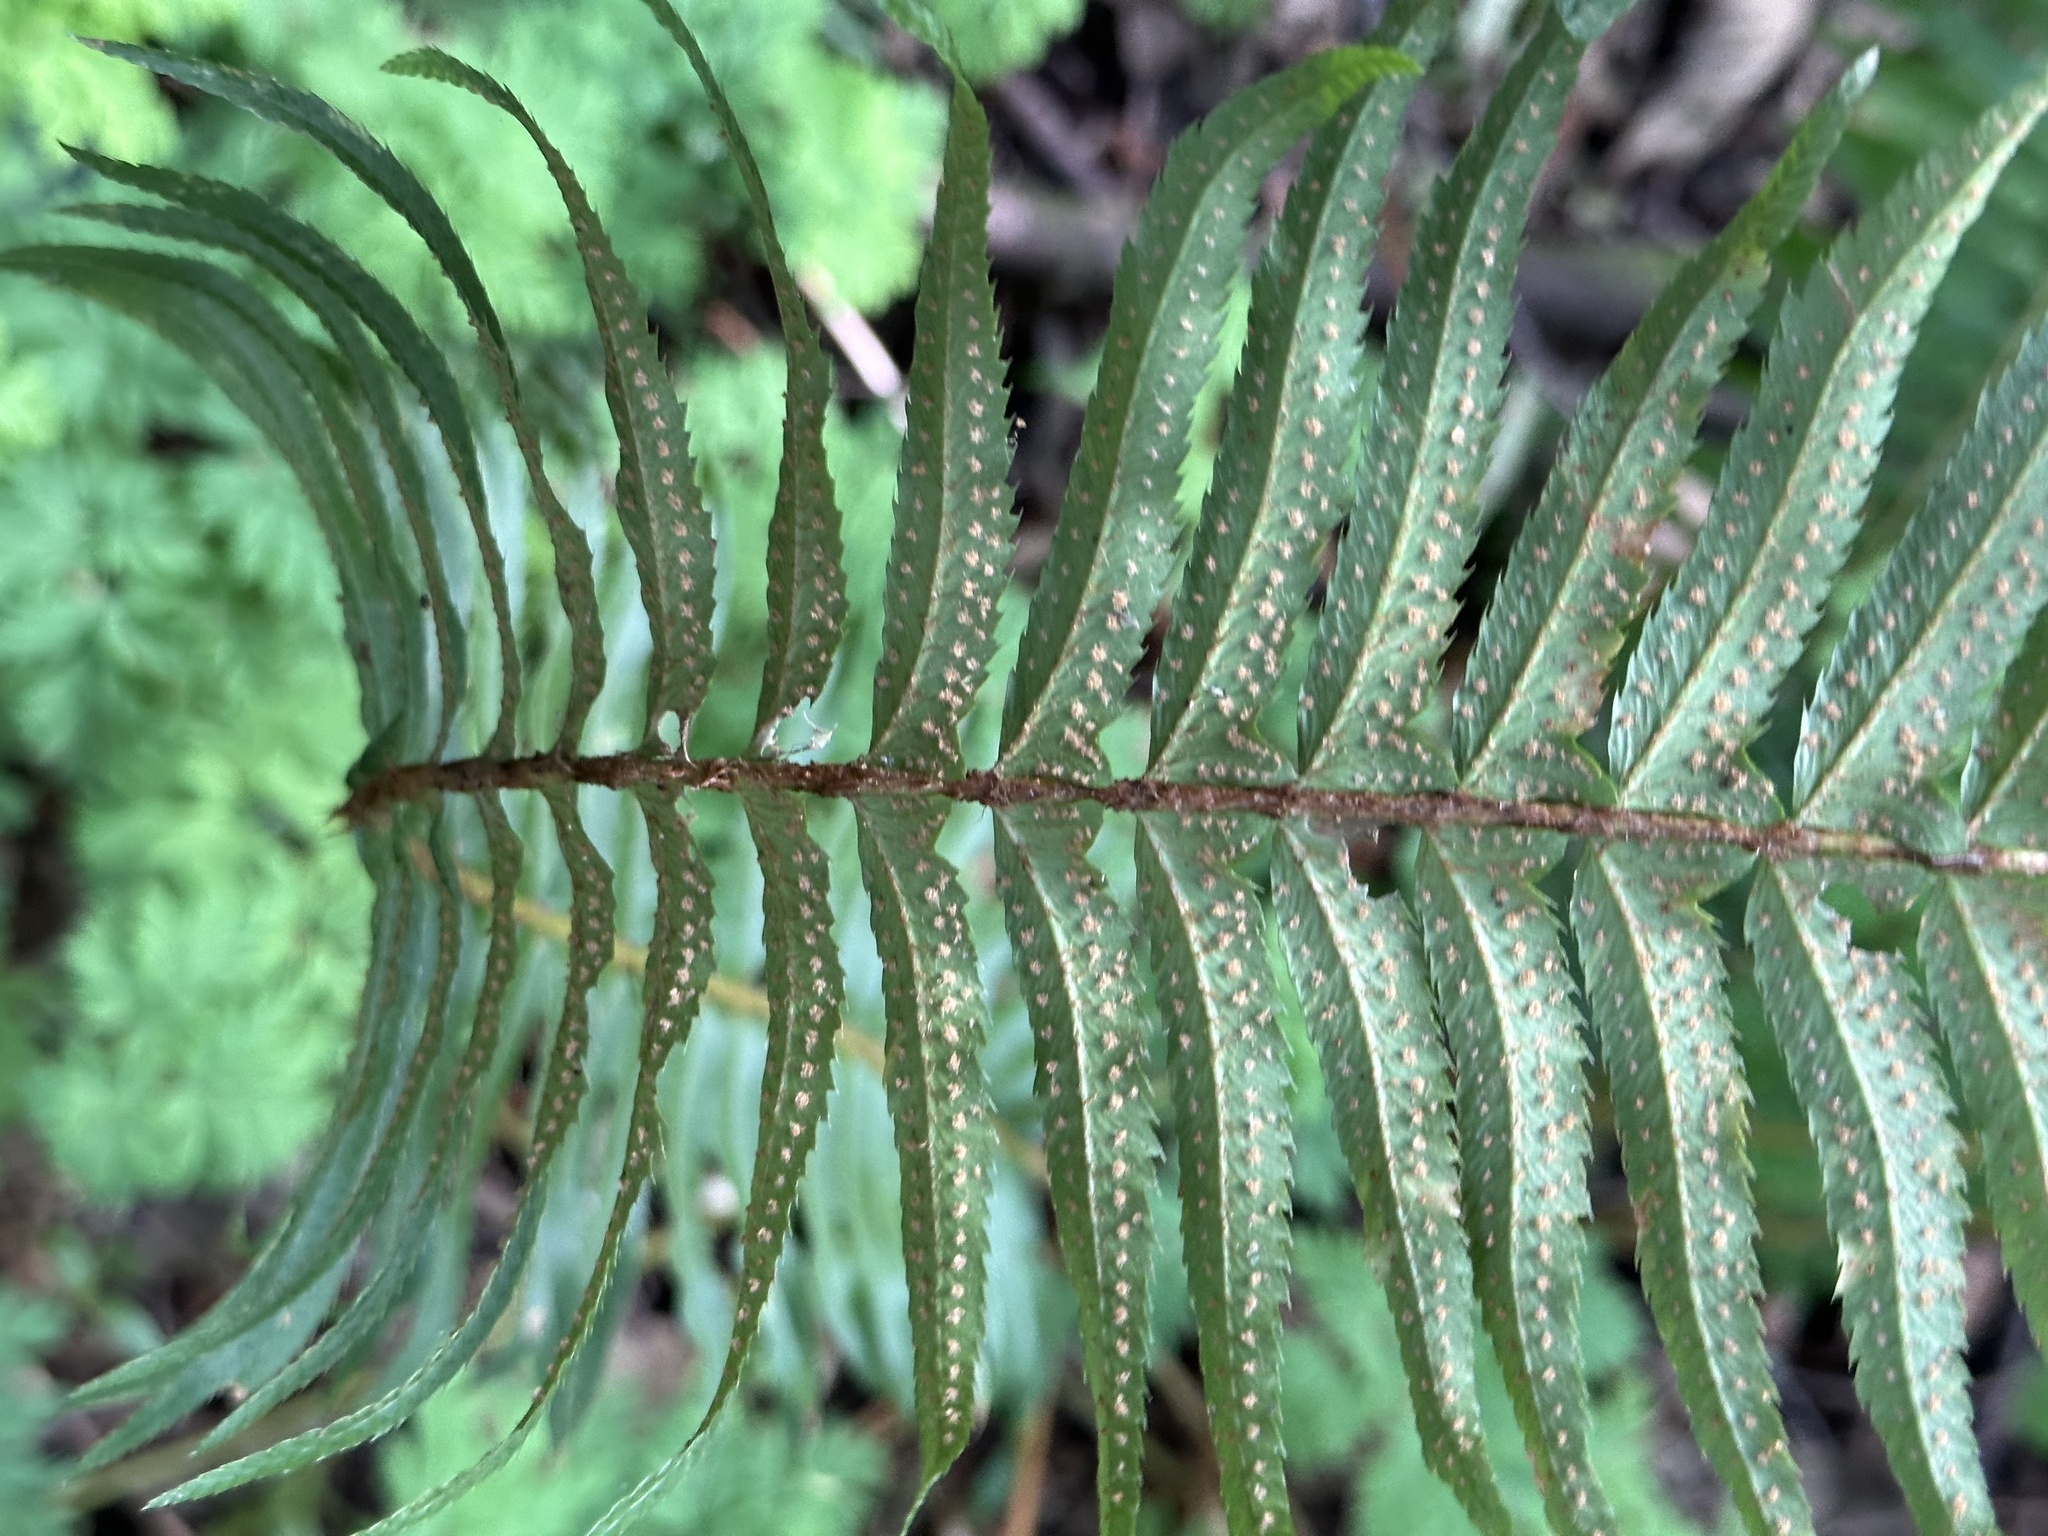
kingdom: Plantae
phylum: Tracheophyta
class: Polypodiopsida
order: Polypodiales
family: Dryopteridaceae
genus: Polystichum
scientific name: Polystichum munitum
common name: Western sword-fern
